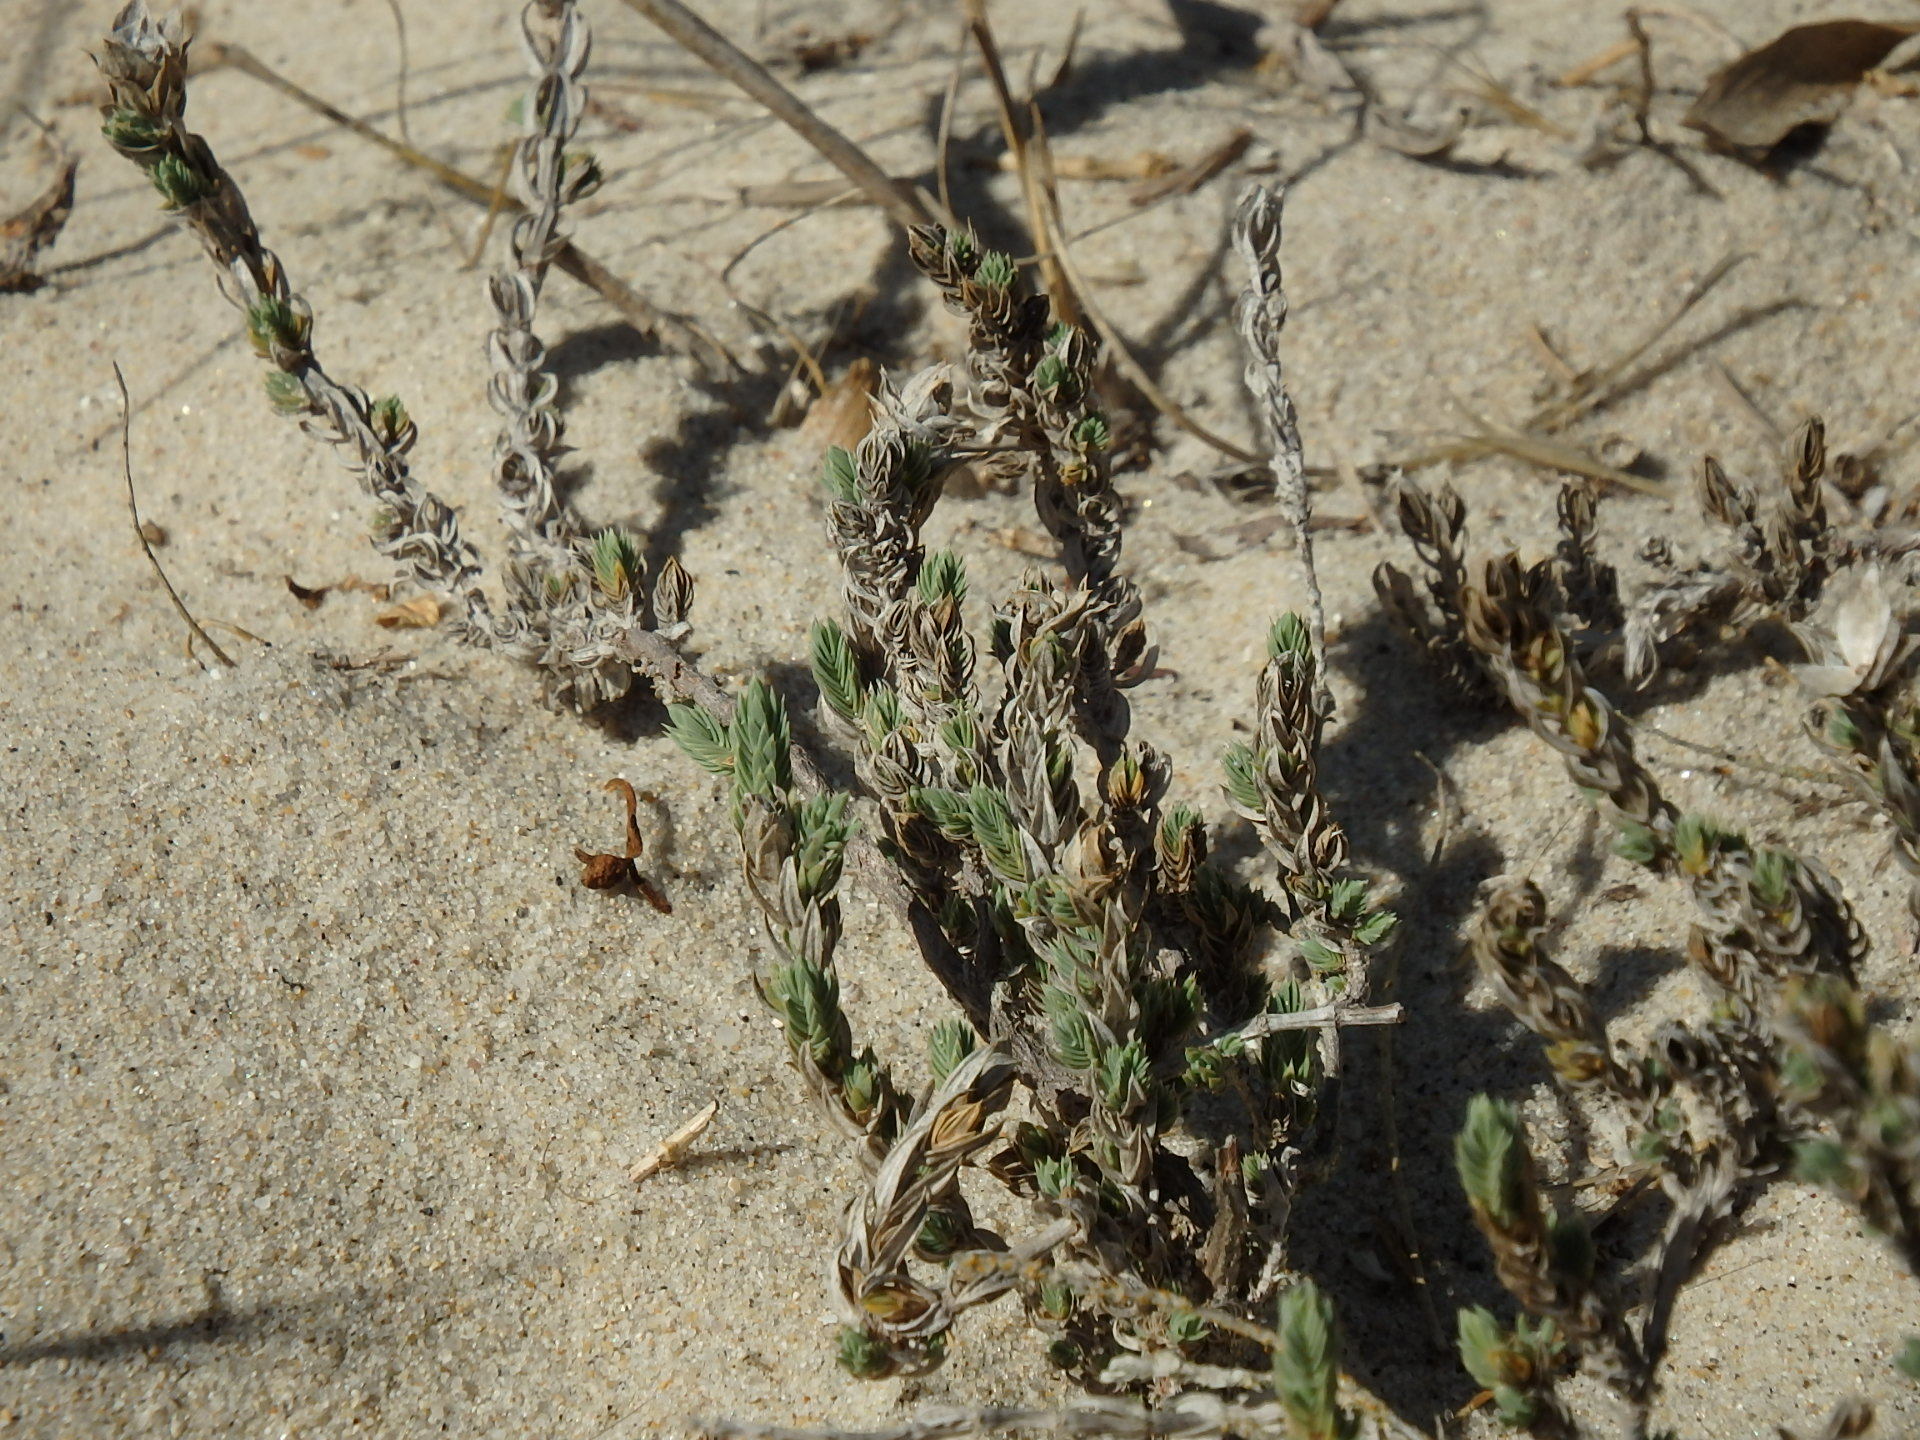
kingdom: Plantae
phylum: Tracheophyta
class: Magnoliopsida
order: Gentianales
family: Rubiaceae
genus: Crucianella
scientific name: Crucianella maritima
